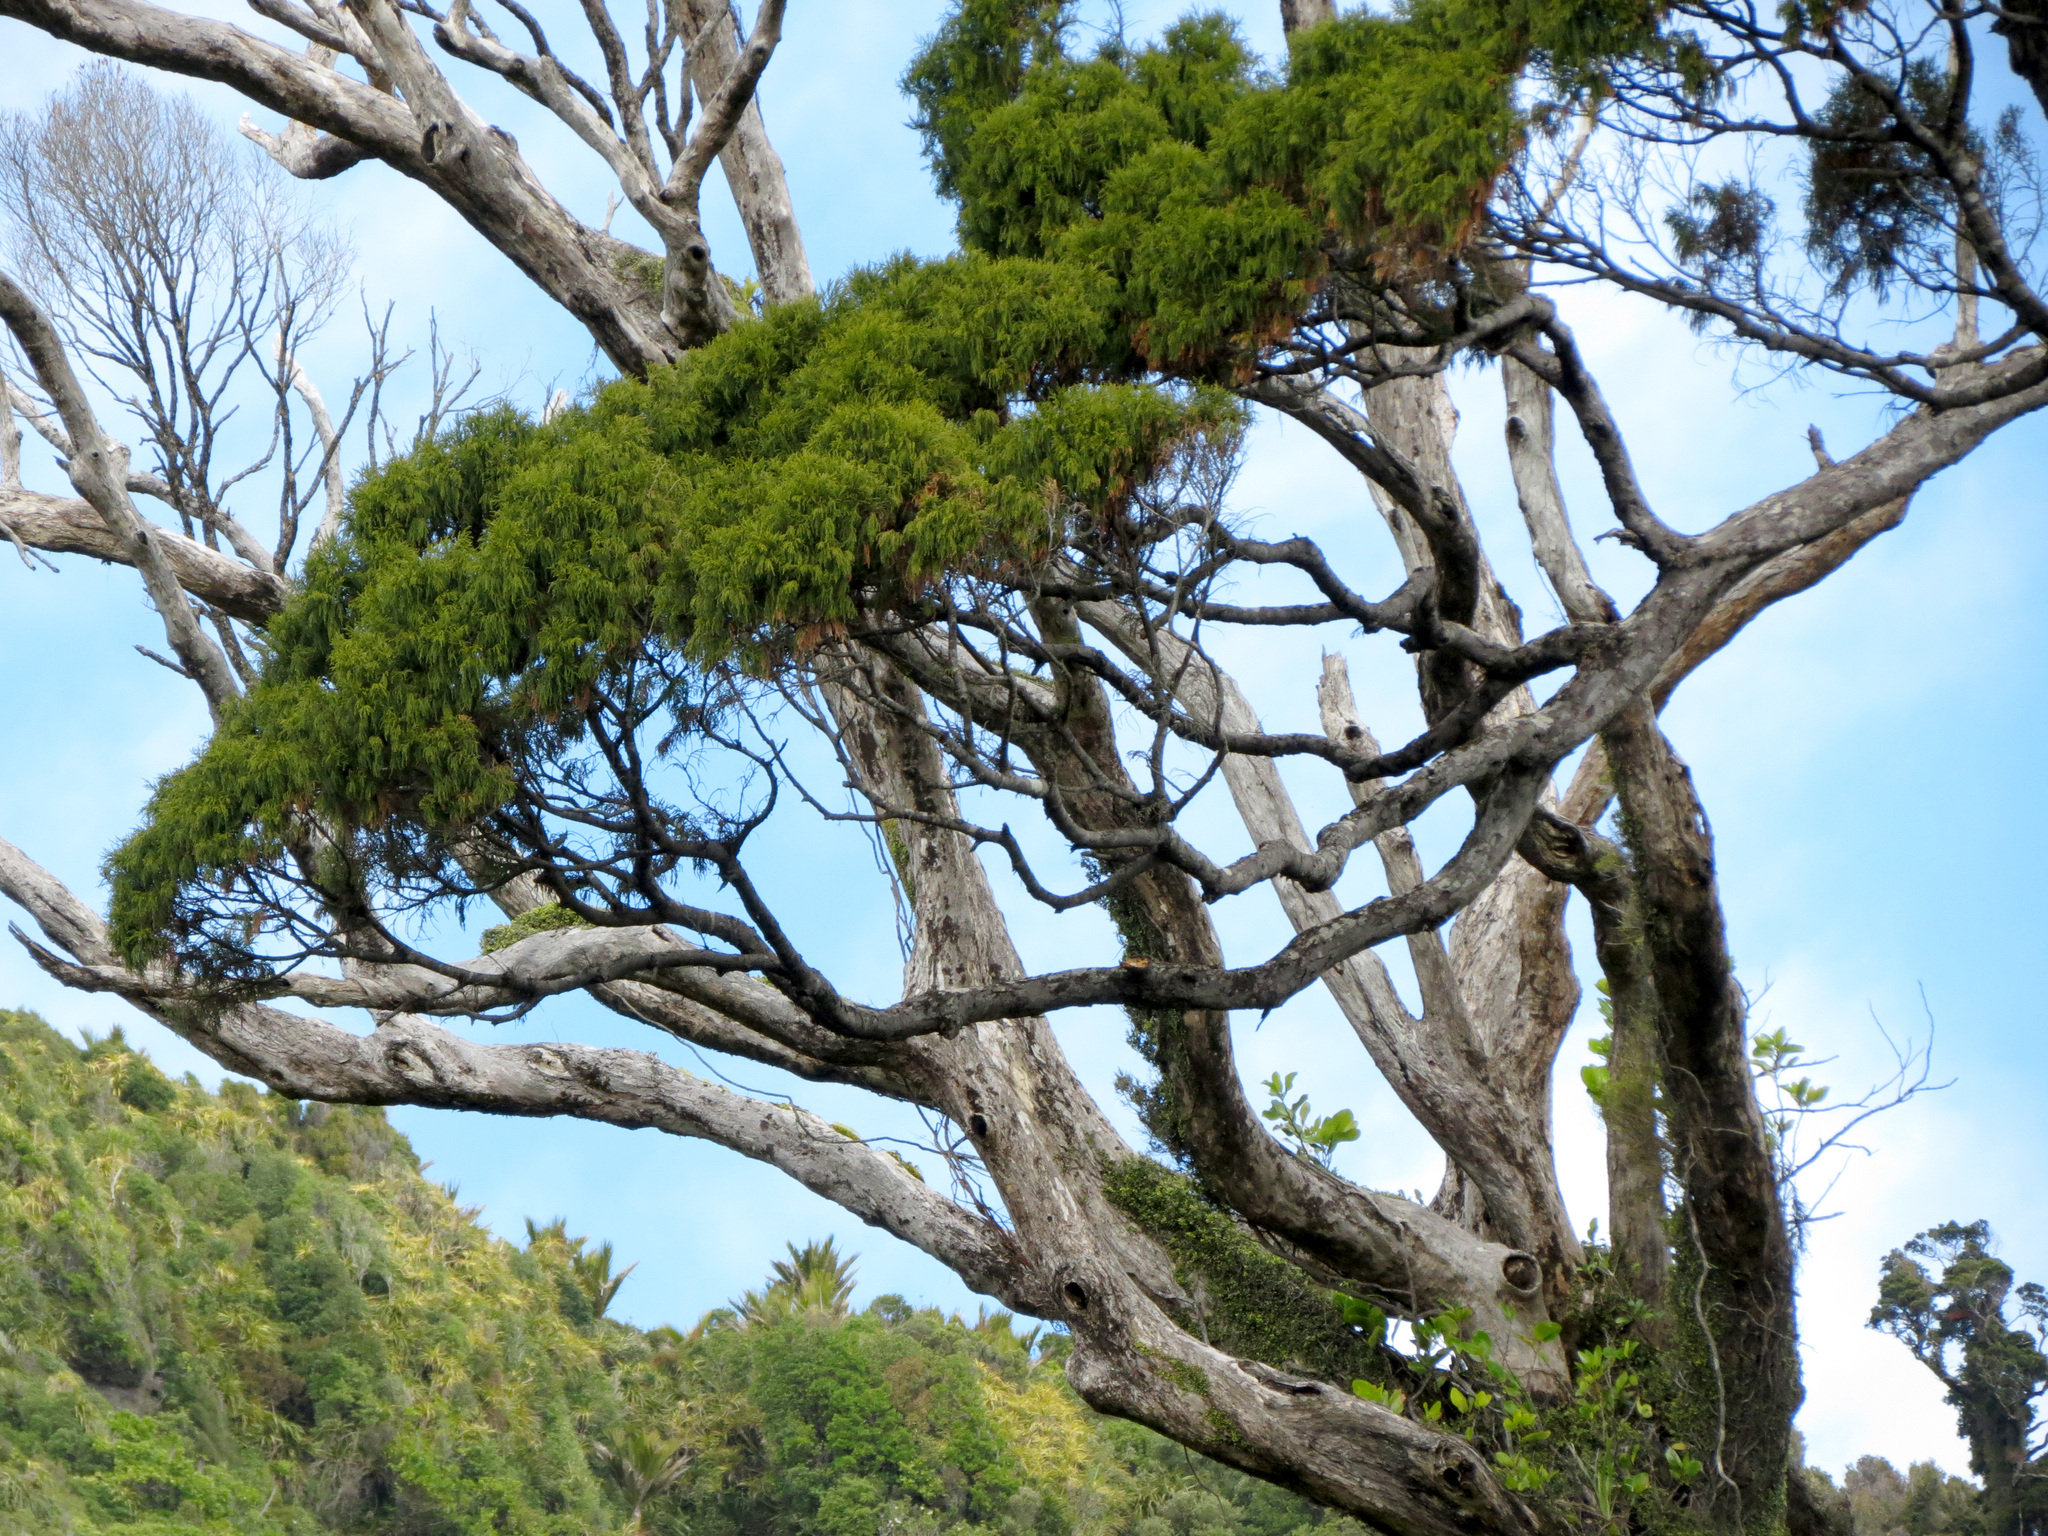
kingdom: Plantae
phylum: Tracheophyta
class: Pinopsida
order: Pinales
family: Podocarpaceae
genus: Dacrydium
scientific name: Dacrydium cupressinum
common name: Red pine
